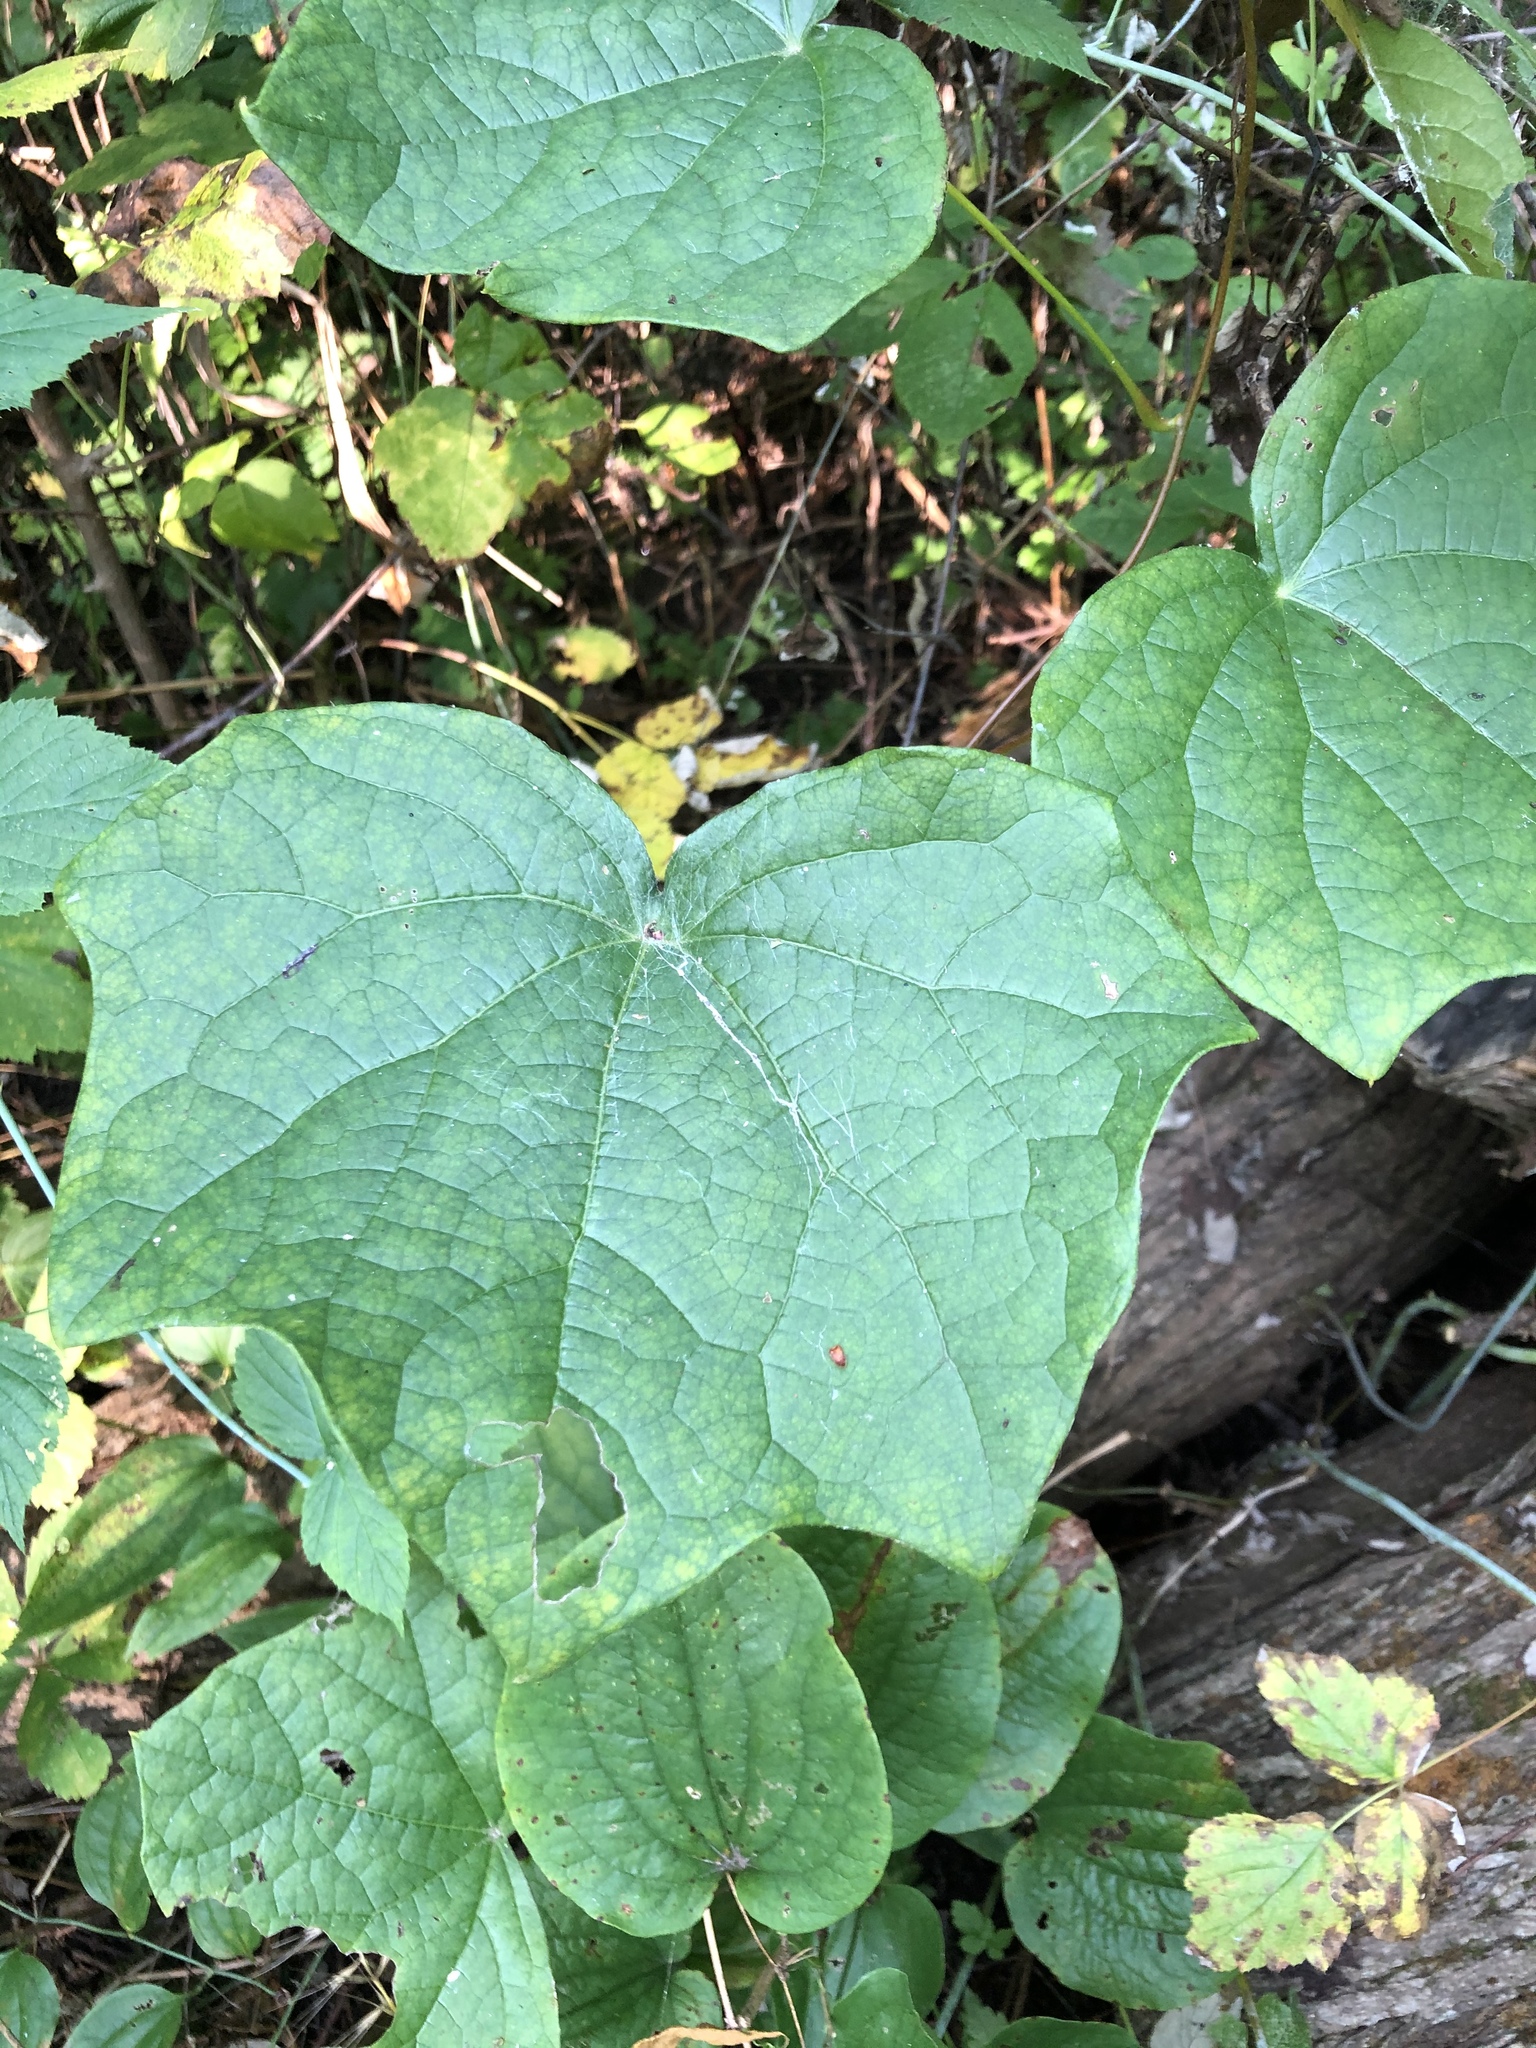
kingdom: Plantae
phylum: Tracheophyta
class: Magnoliopsida
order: Ranunculales
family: Menispermaceae
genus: Menispermum
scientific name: Menispermum canadense
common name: Moonseed
